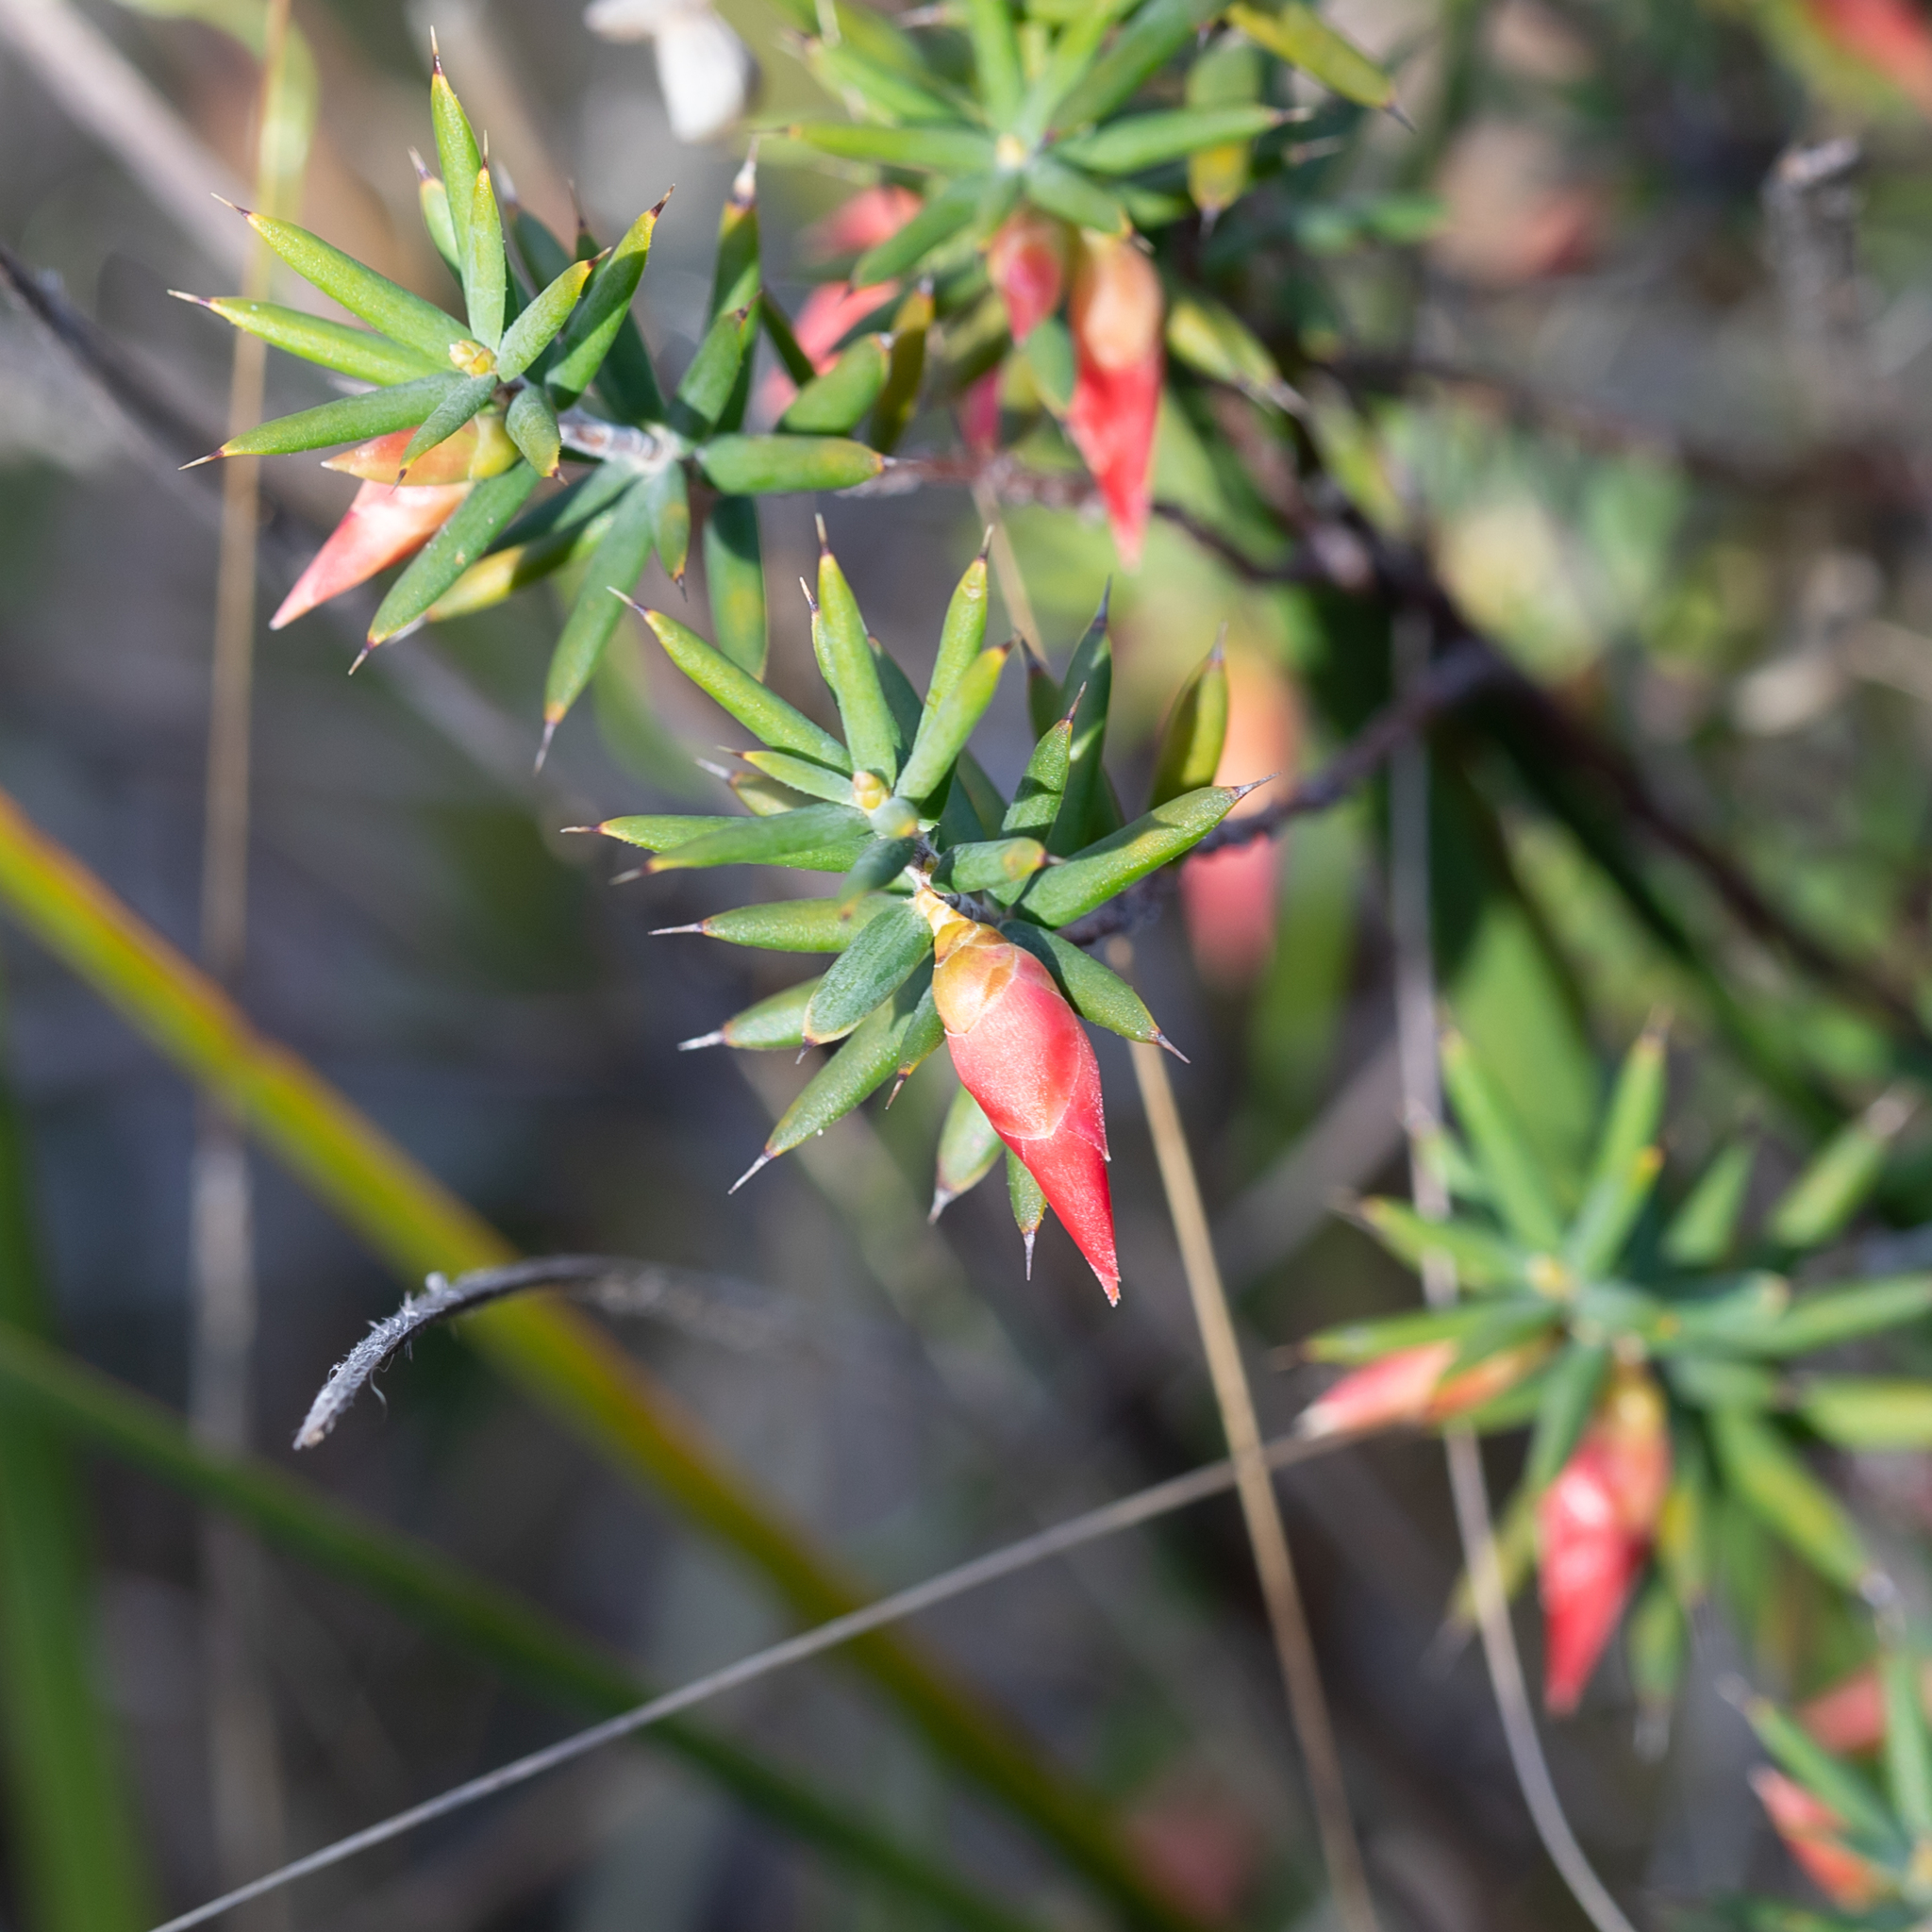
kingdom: Plantae
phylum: Tracheophyta
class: Magnoliopsida
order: Ericales
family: Ericaceae
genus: Stenanthera
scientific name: Stenanthera conostephioides
